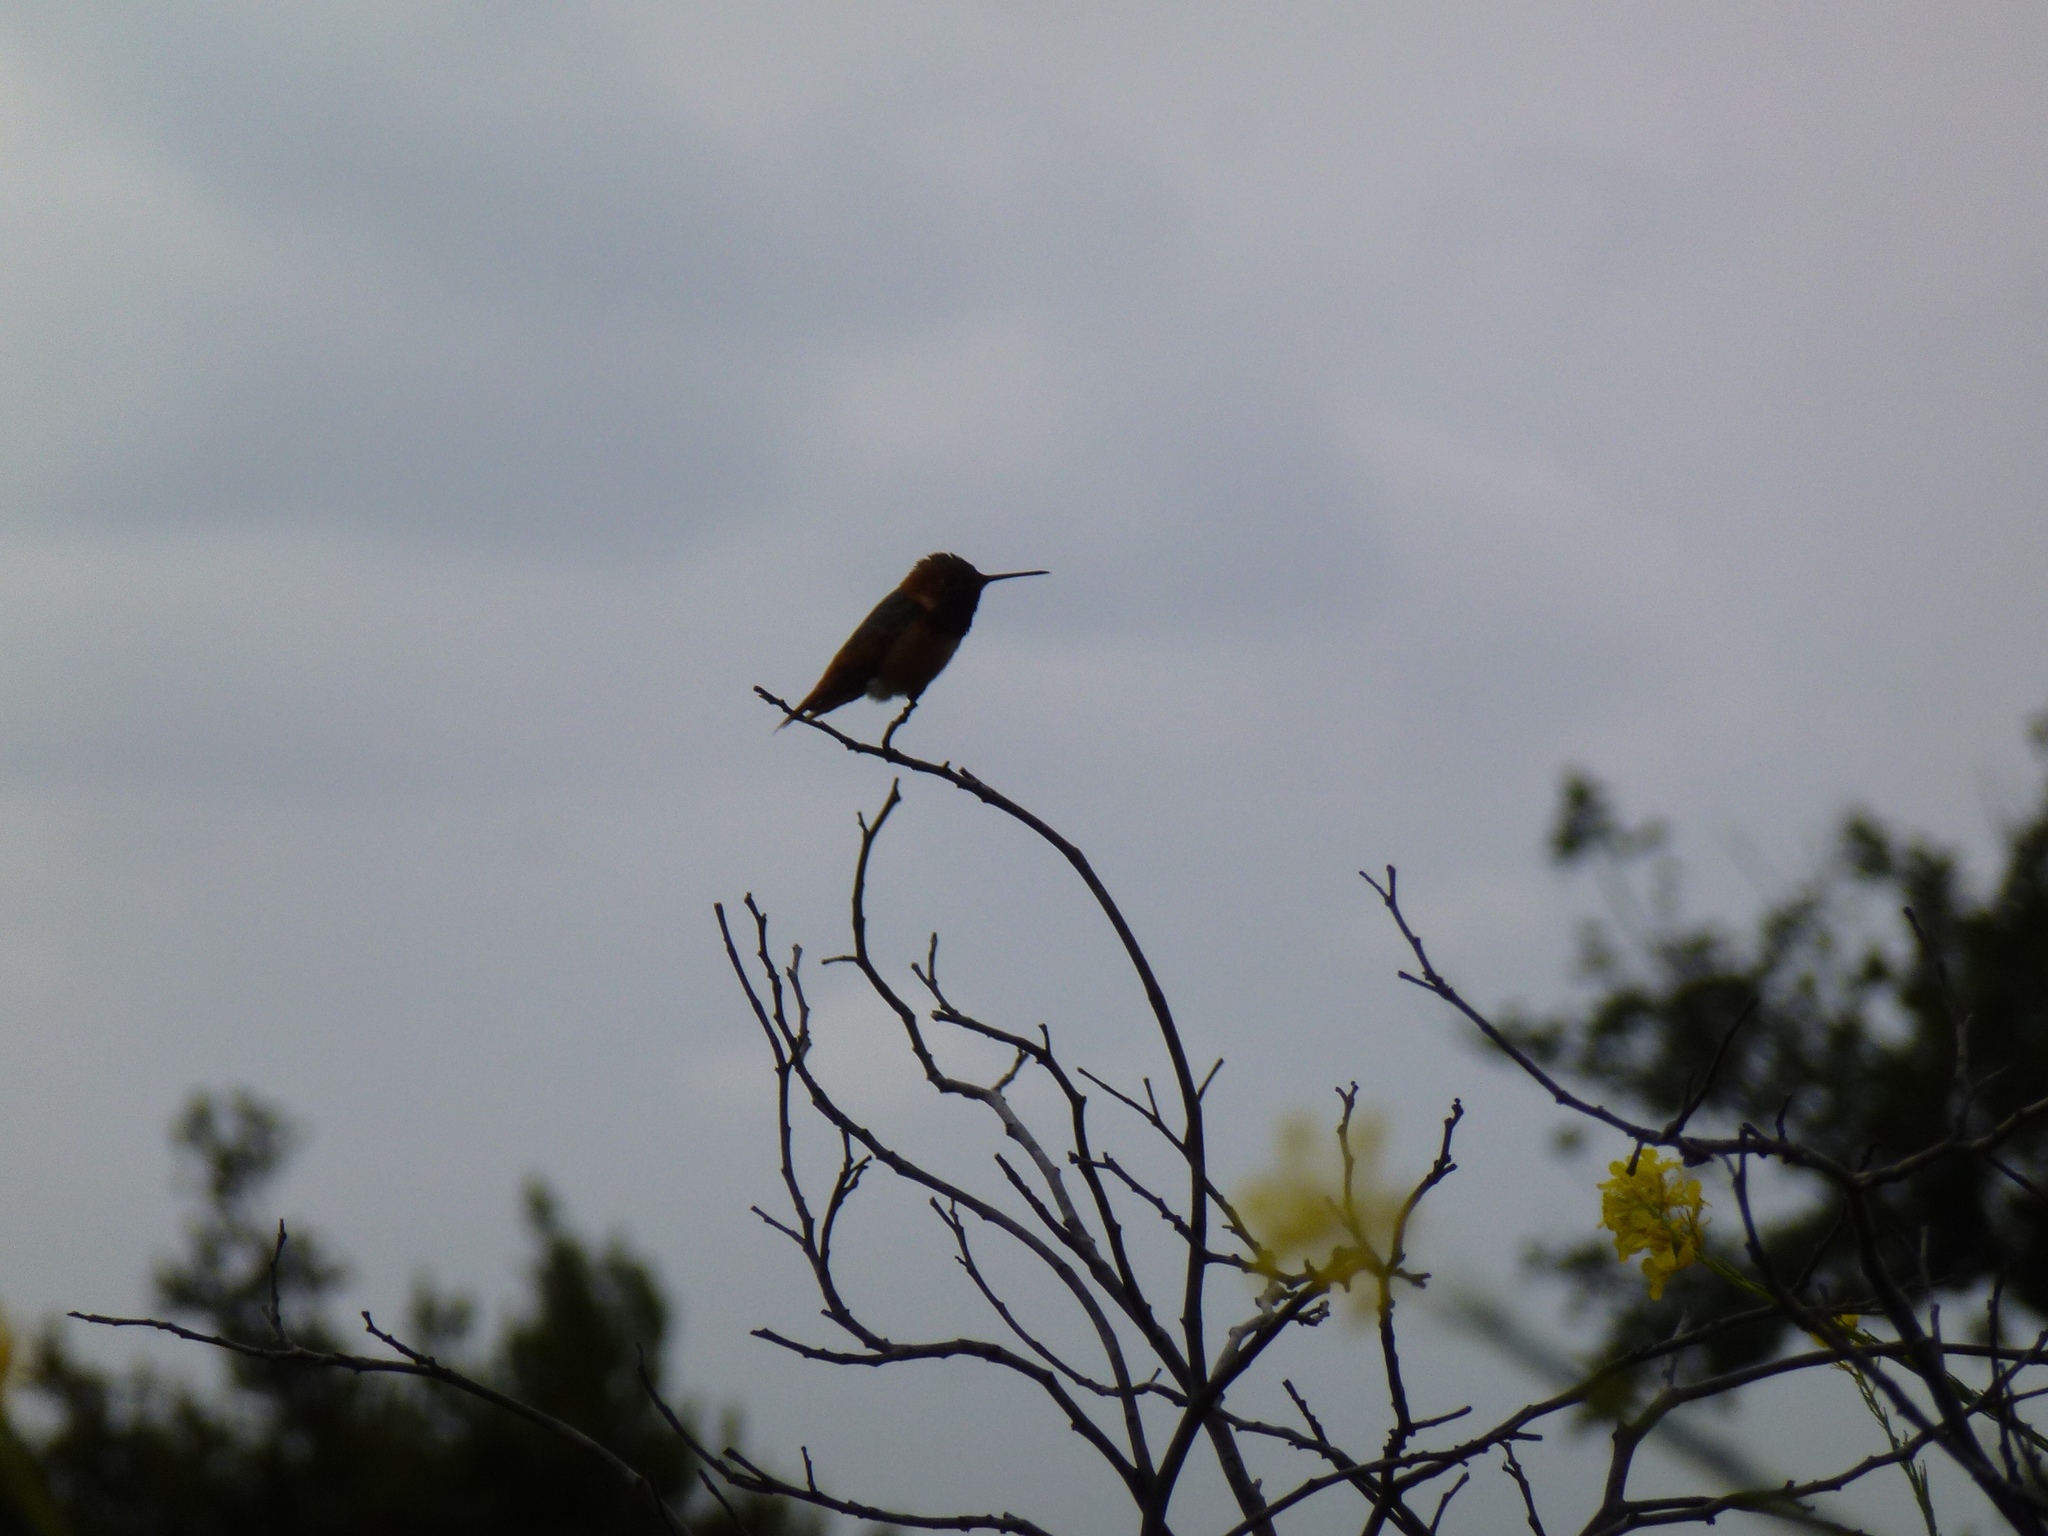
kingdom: Animalia
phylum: Chordata
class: Aves
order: Apodiformes
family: Trochilidae
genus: Selasphorus
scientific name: Selasphorus sasin
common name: Allen's hummingbird
